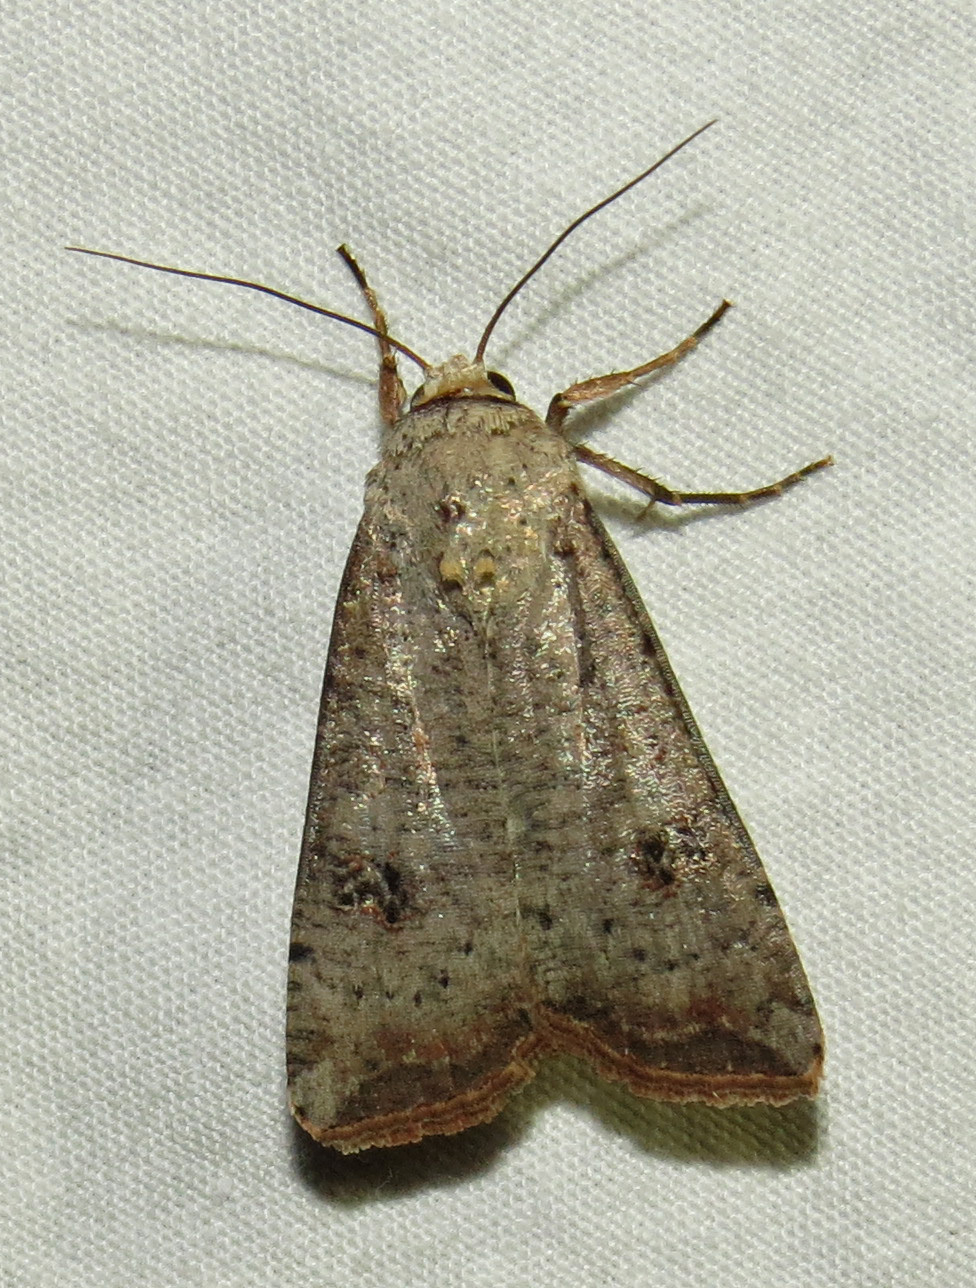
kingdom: Animalia
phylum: Arthropoda
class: Insecta
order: Lepidoptera
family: Noctuidae
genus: Anicla
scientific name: Anicla infecta
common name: Green cutworm
